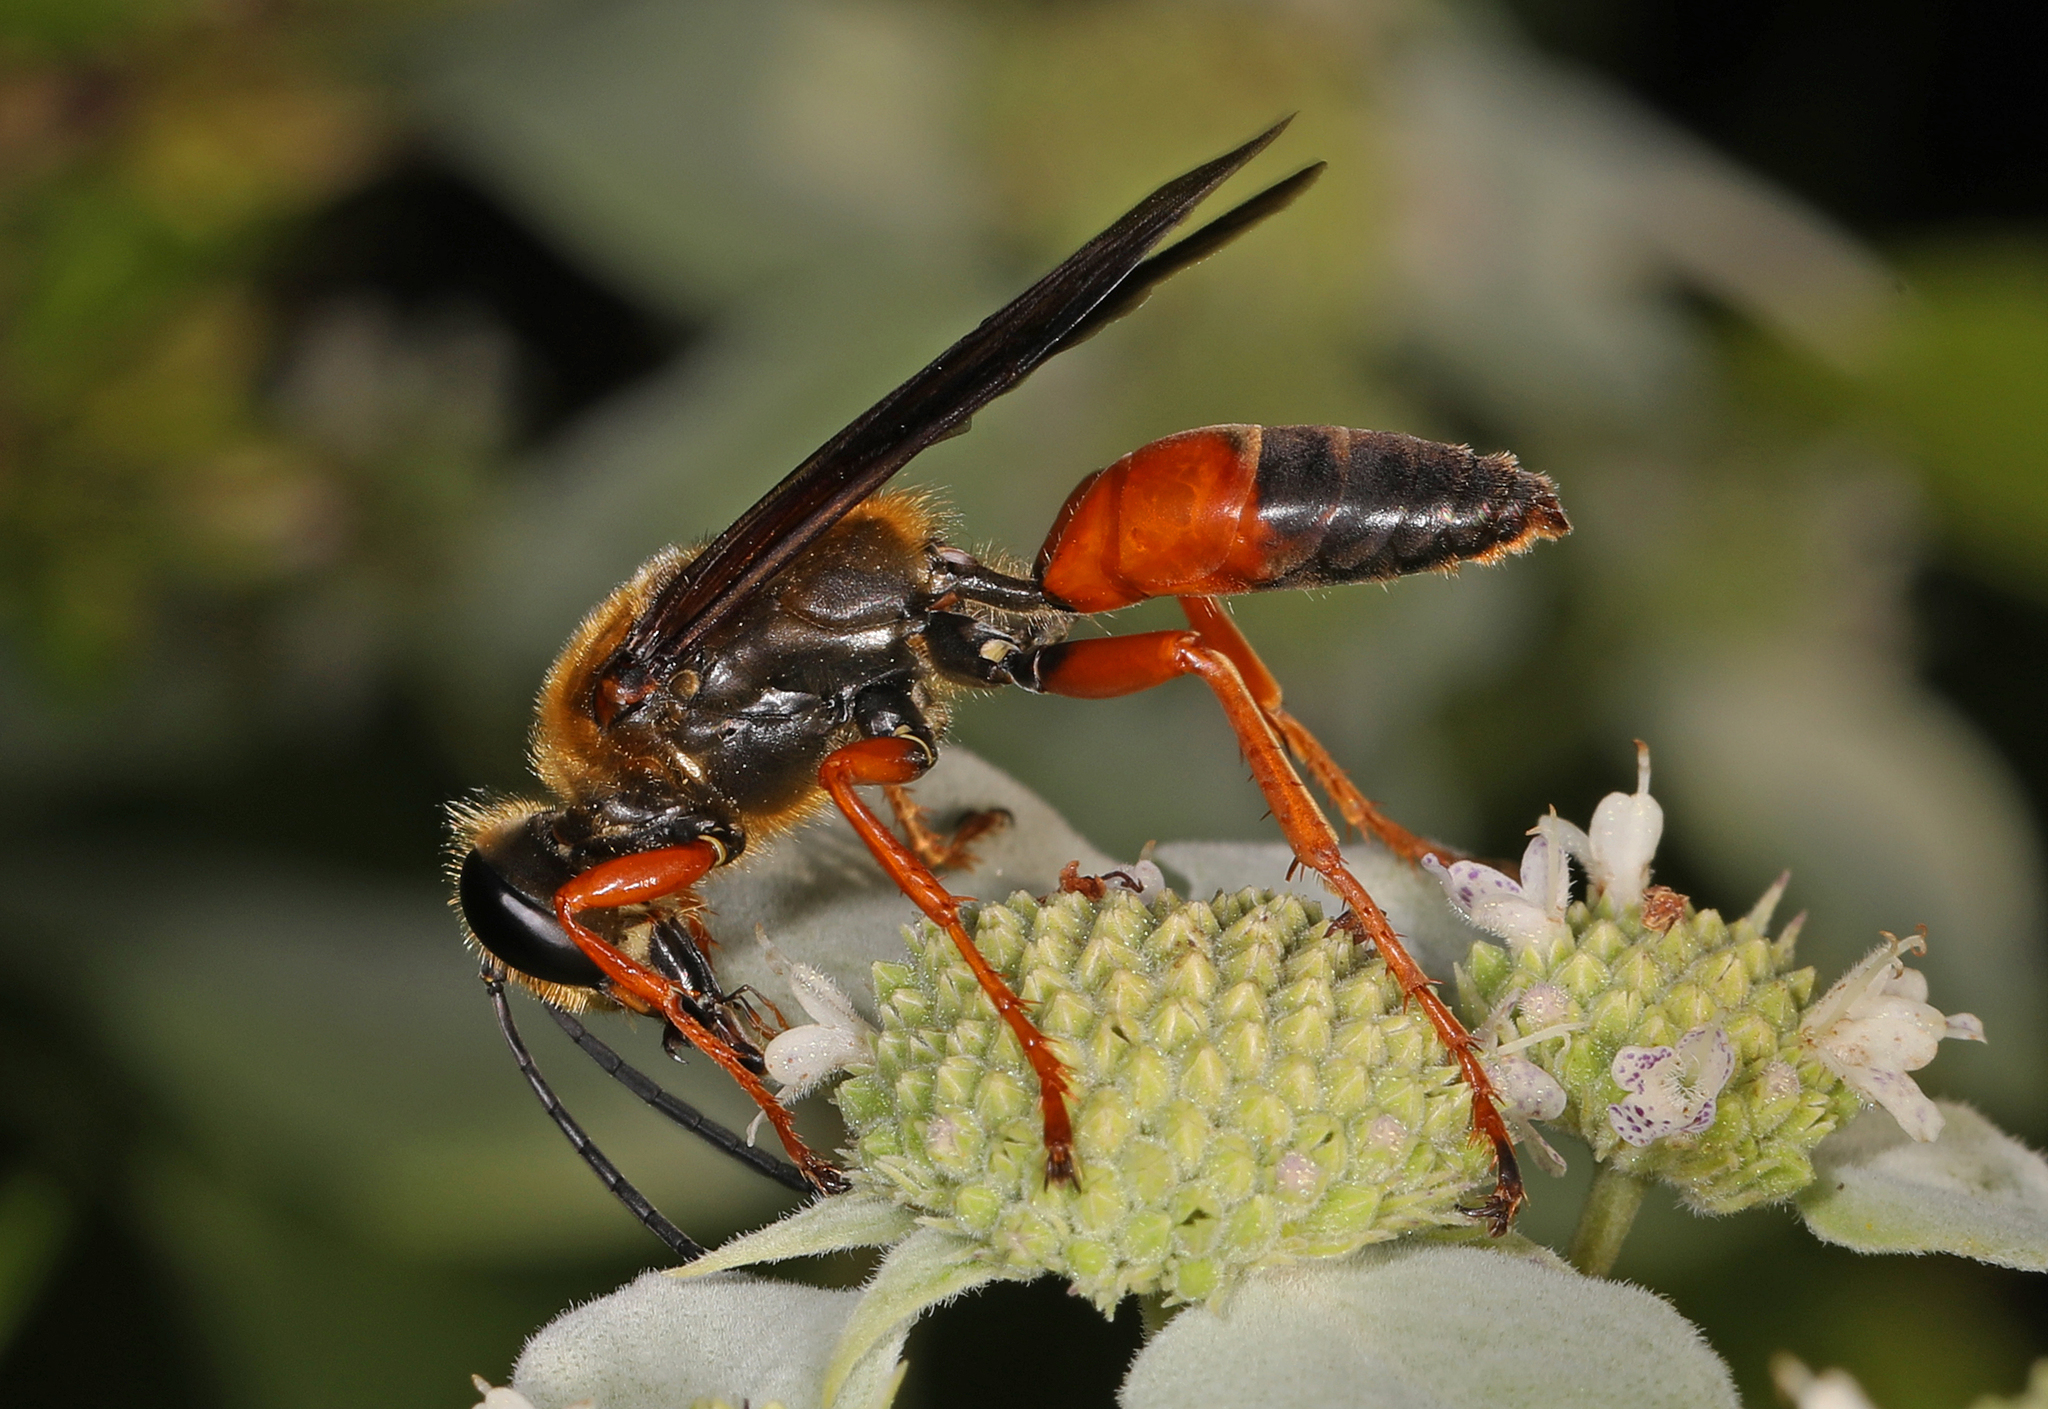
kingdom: Animalia
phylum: Arthropoda
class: Insecta
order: Hymenoptera
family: Sphecidae
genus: Sphex
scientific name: Sphex ichneumoneus
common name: Great golden digger wasp
